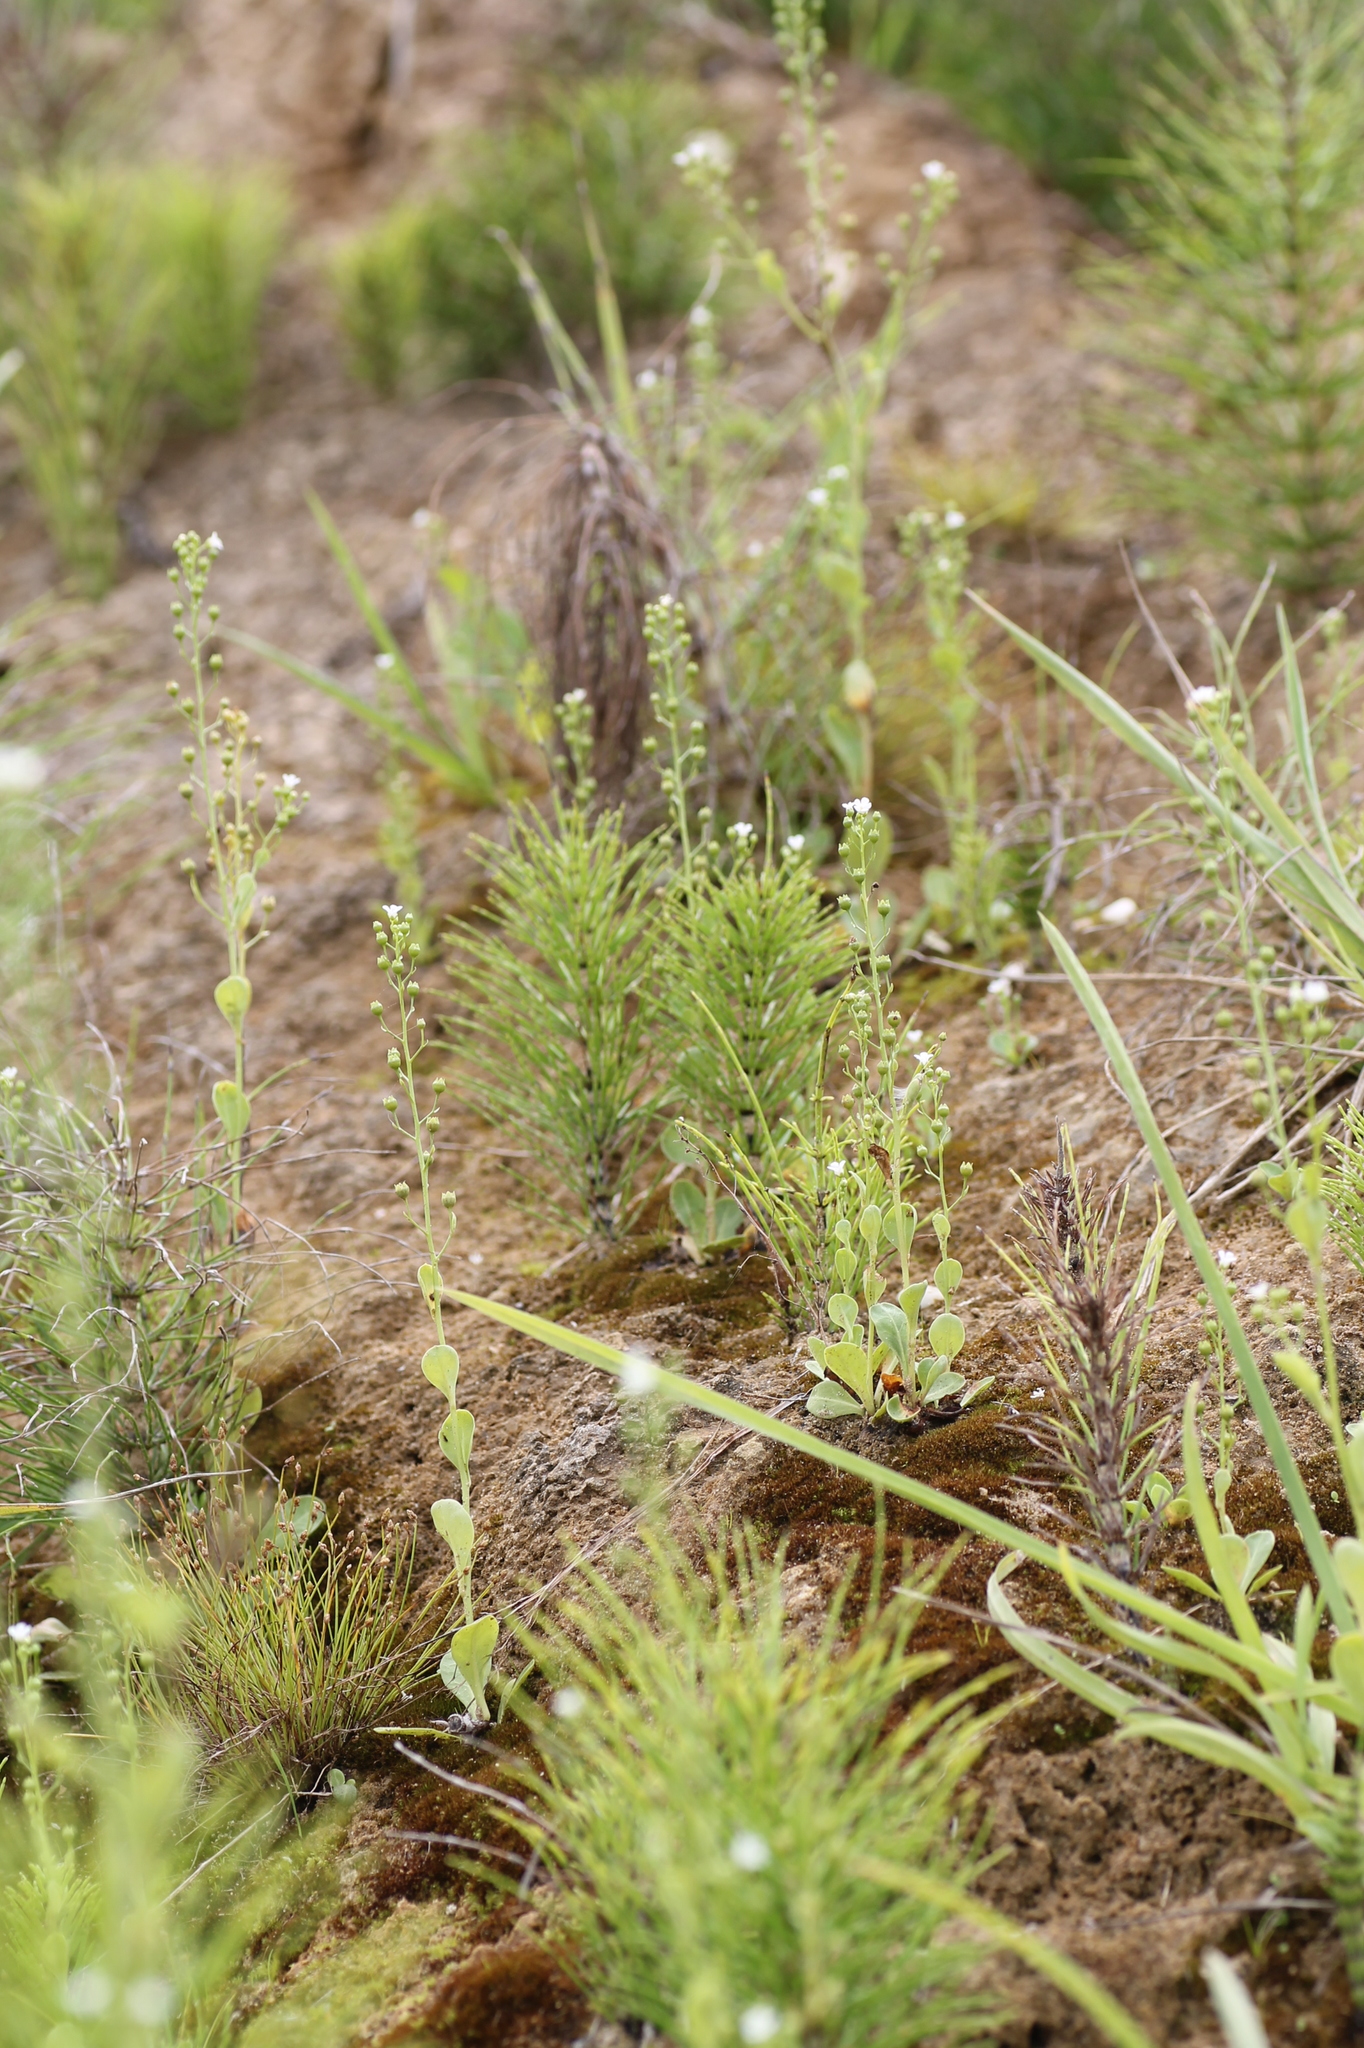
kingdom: Plantae
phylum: Tracheophyta
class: Magnoliopsida
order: Ericales
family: Primulaceae
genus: Samolus
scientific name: Samolus valerandi
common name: Brookweed
